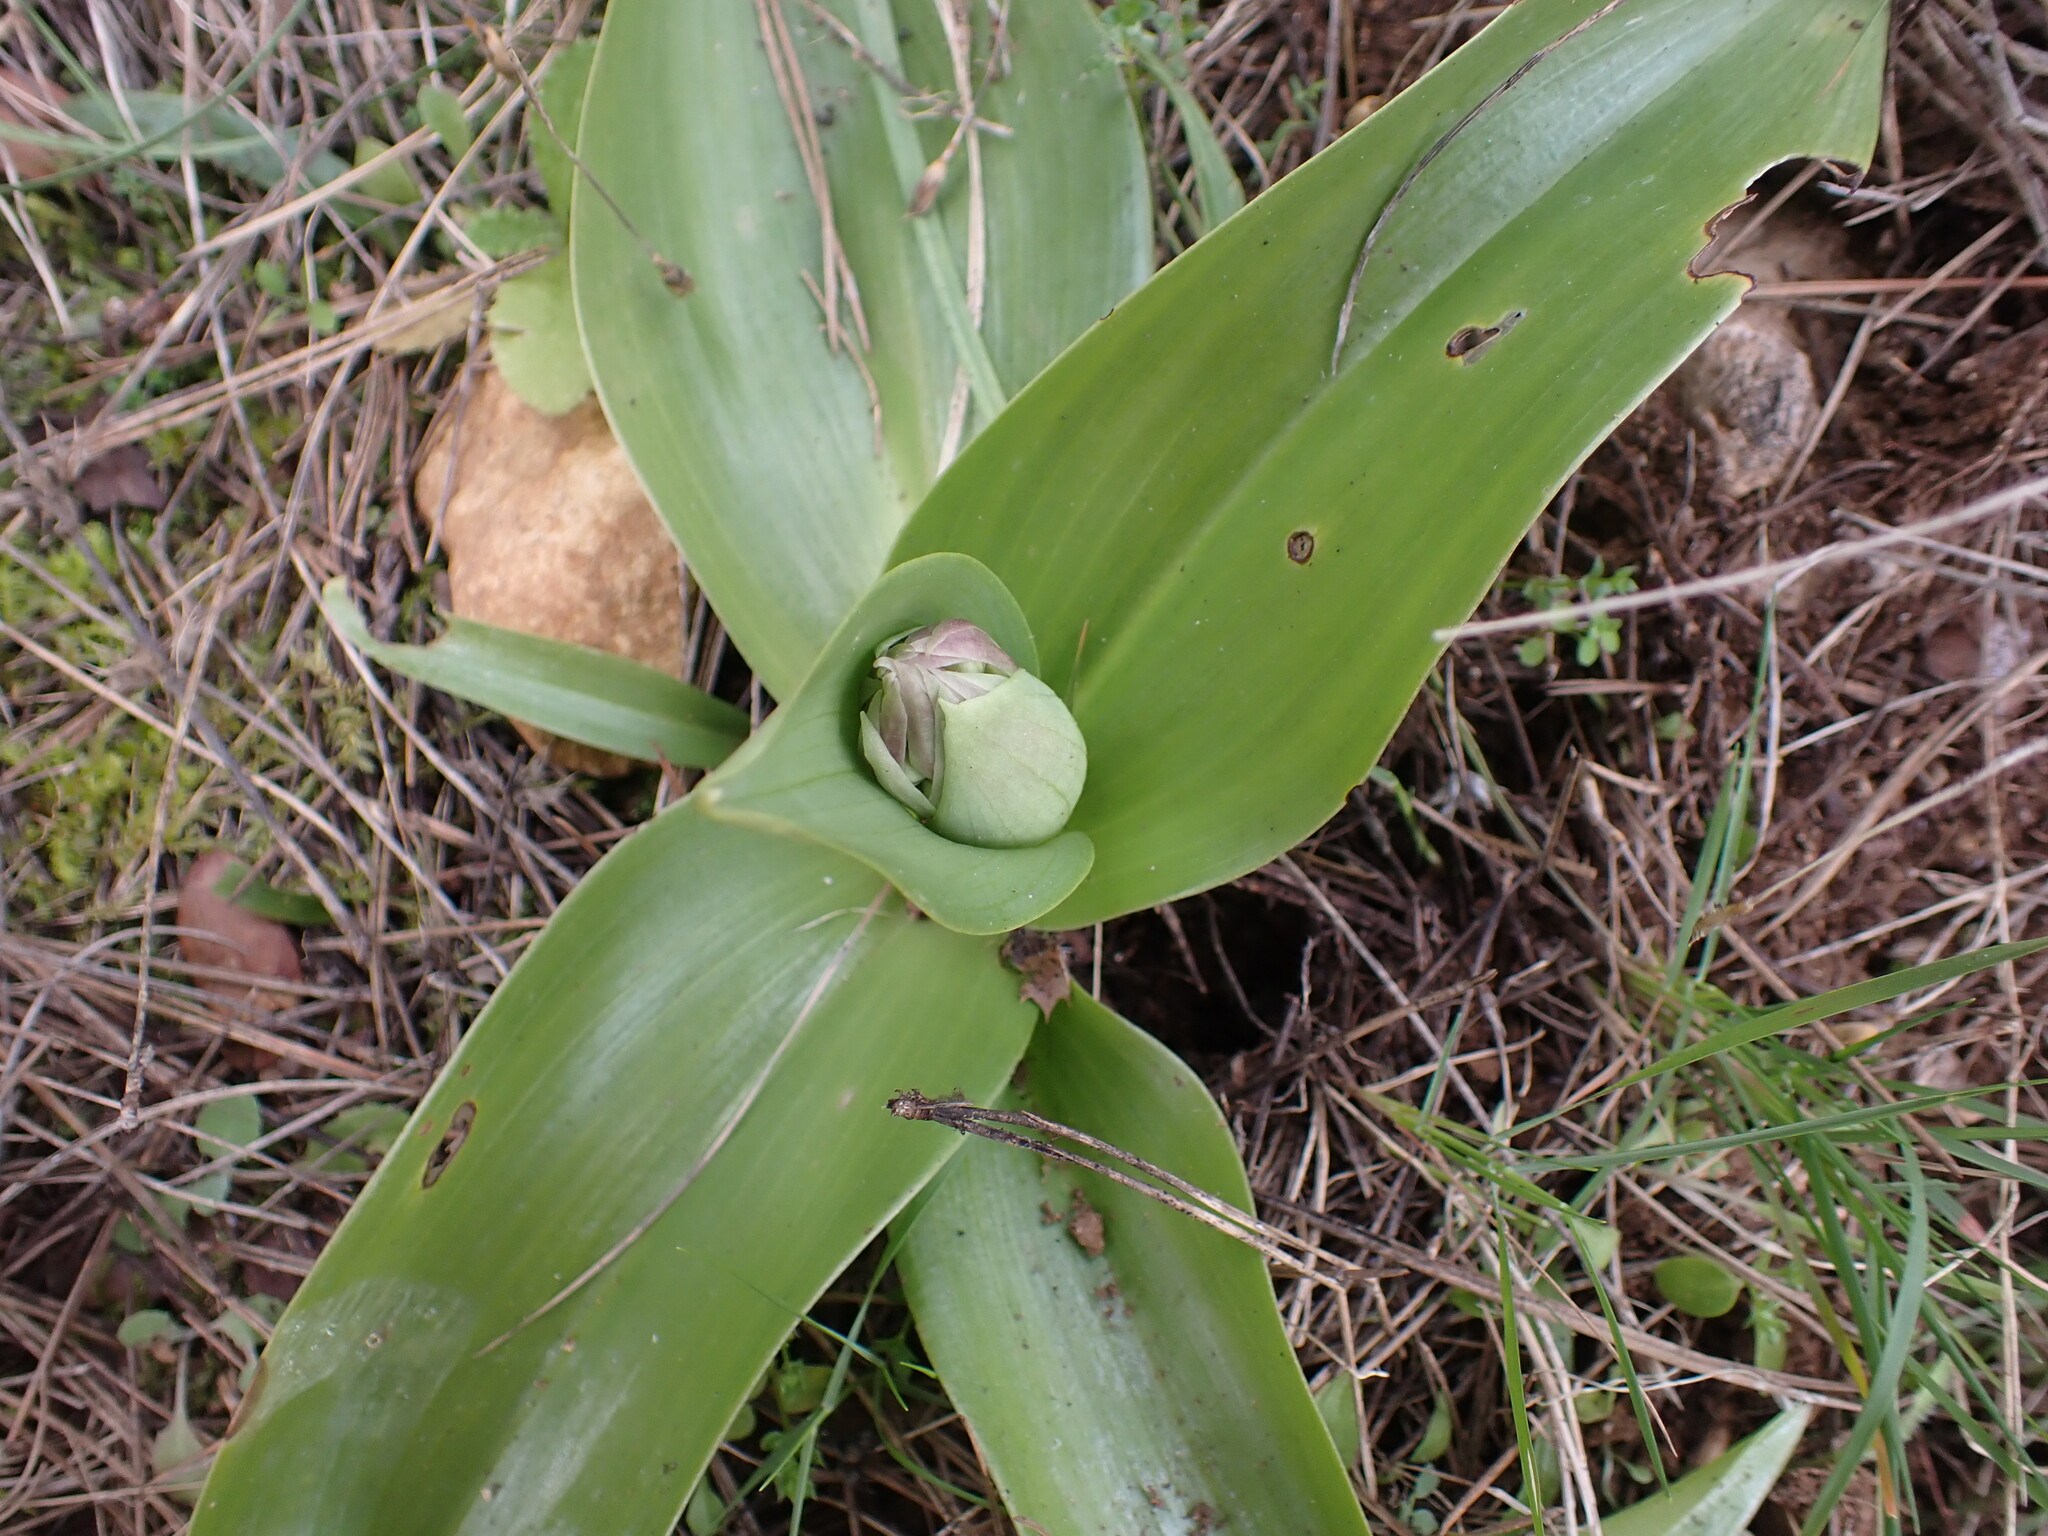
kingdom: Plantae
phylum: Tracheophyta
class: Liliopsida
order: Asparagales
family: Orchidaceae
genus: Himantoglossum
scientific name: Himantoglossum robertianum
